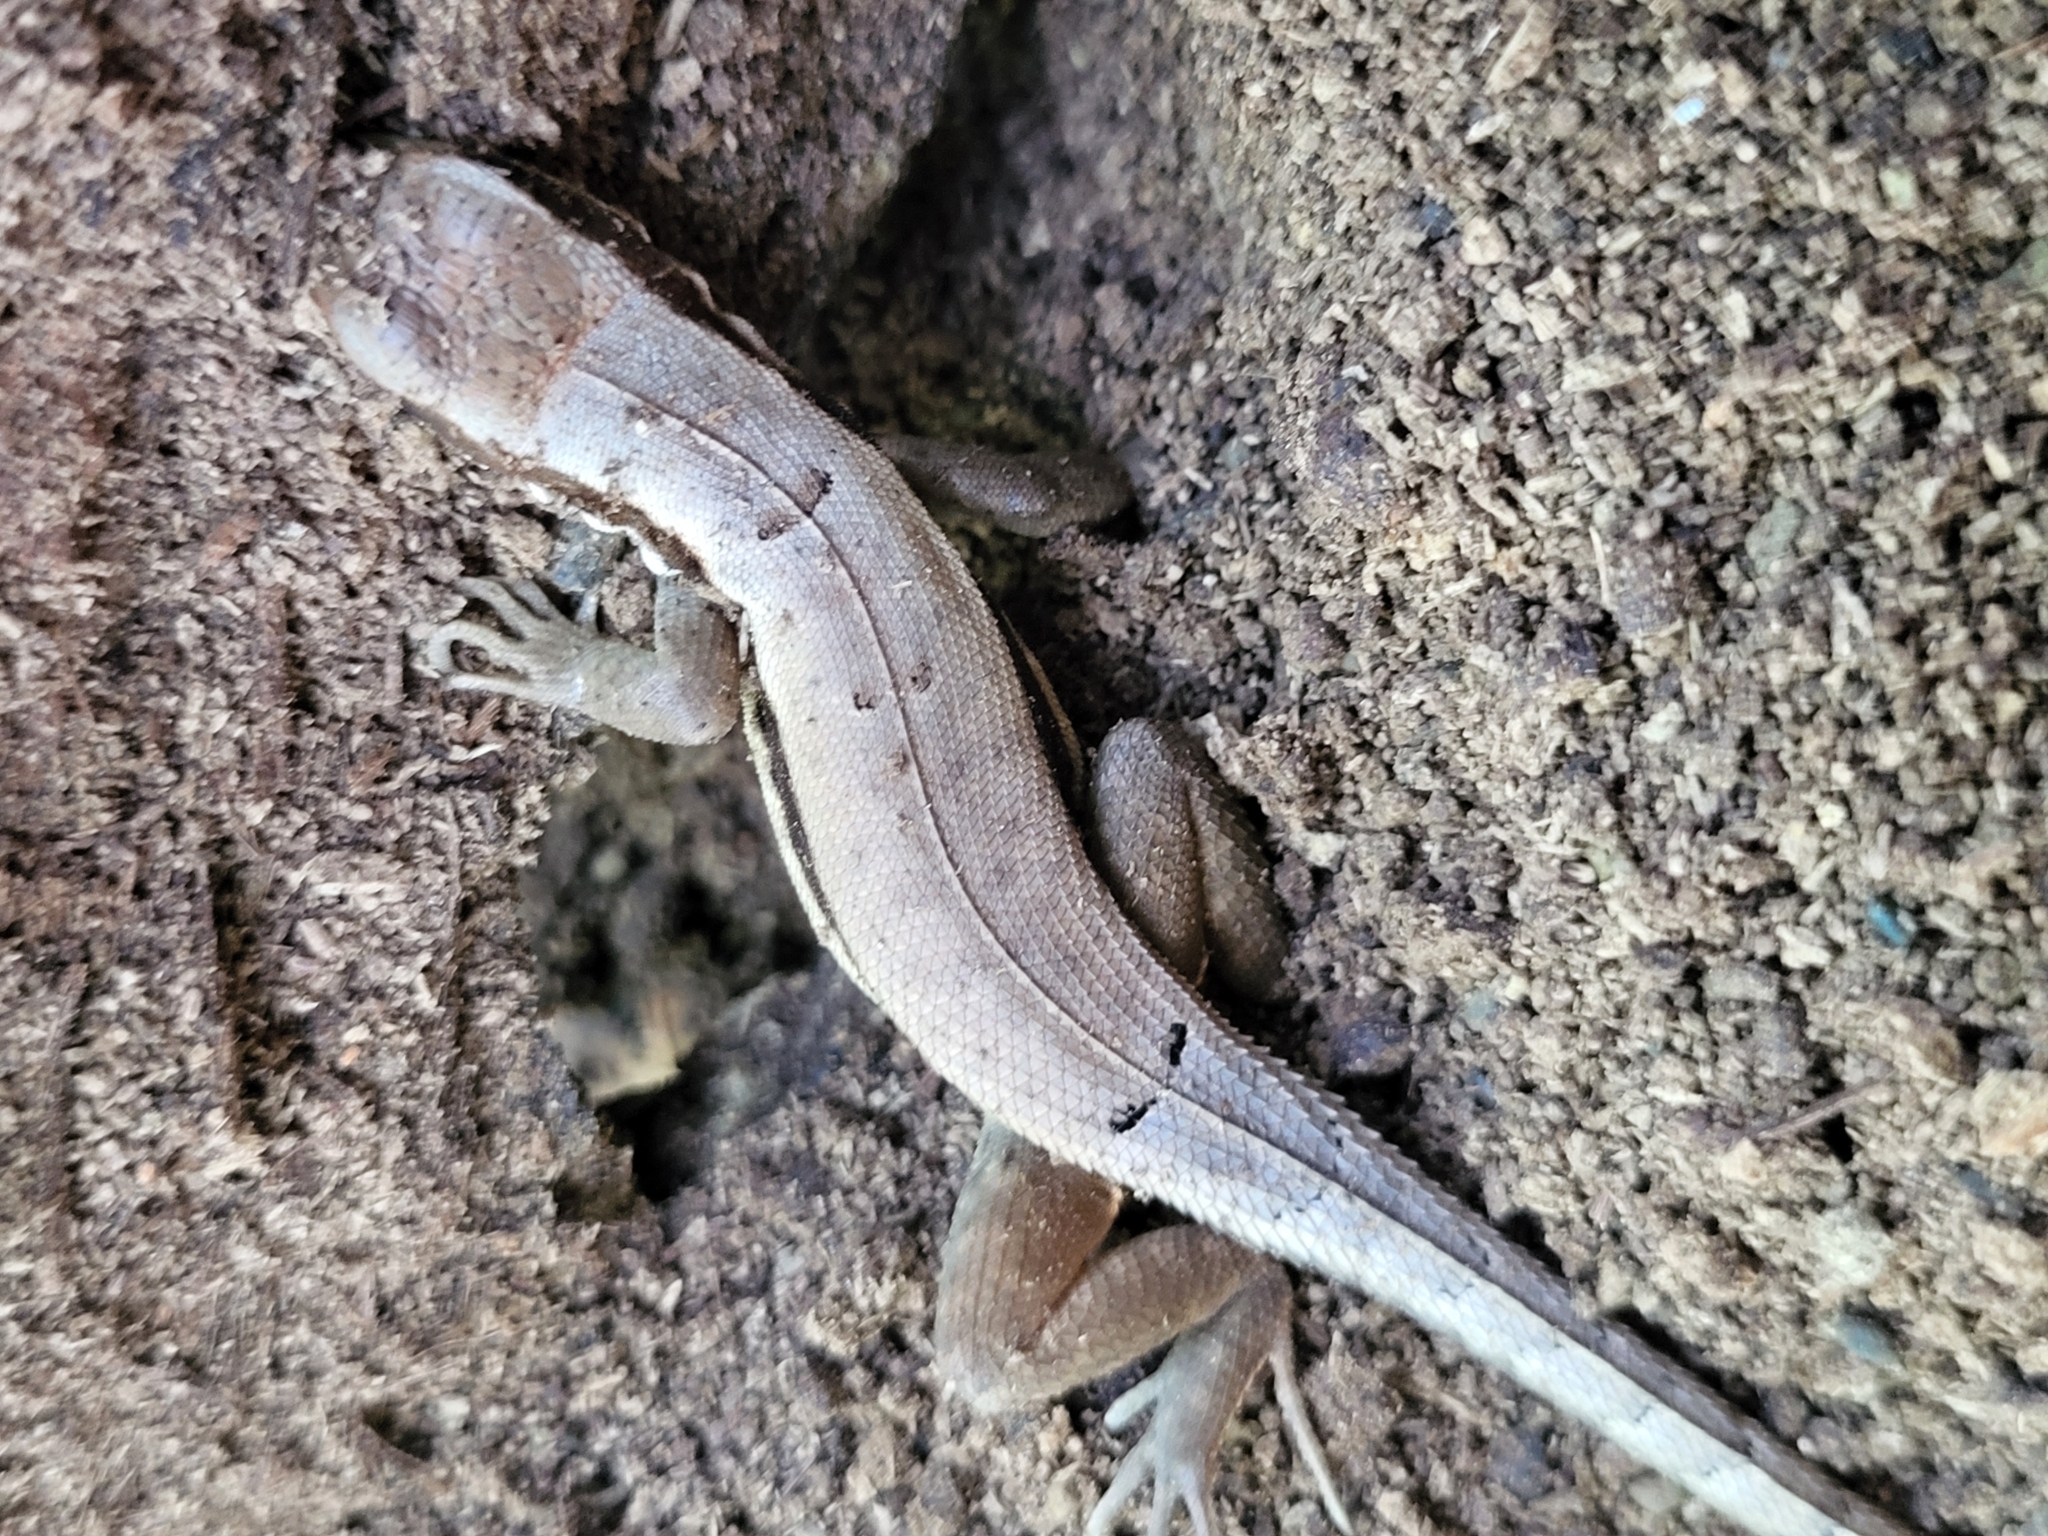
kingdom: Animalia
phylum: Chordata
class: Squamata
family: Leiocephalidae
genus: Leiocephalus
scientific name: Leiocephalus macropus
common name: Monte verde curlytail lizard
